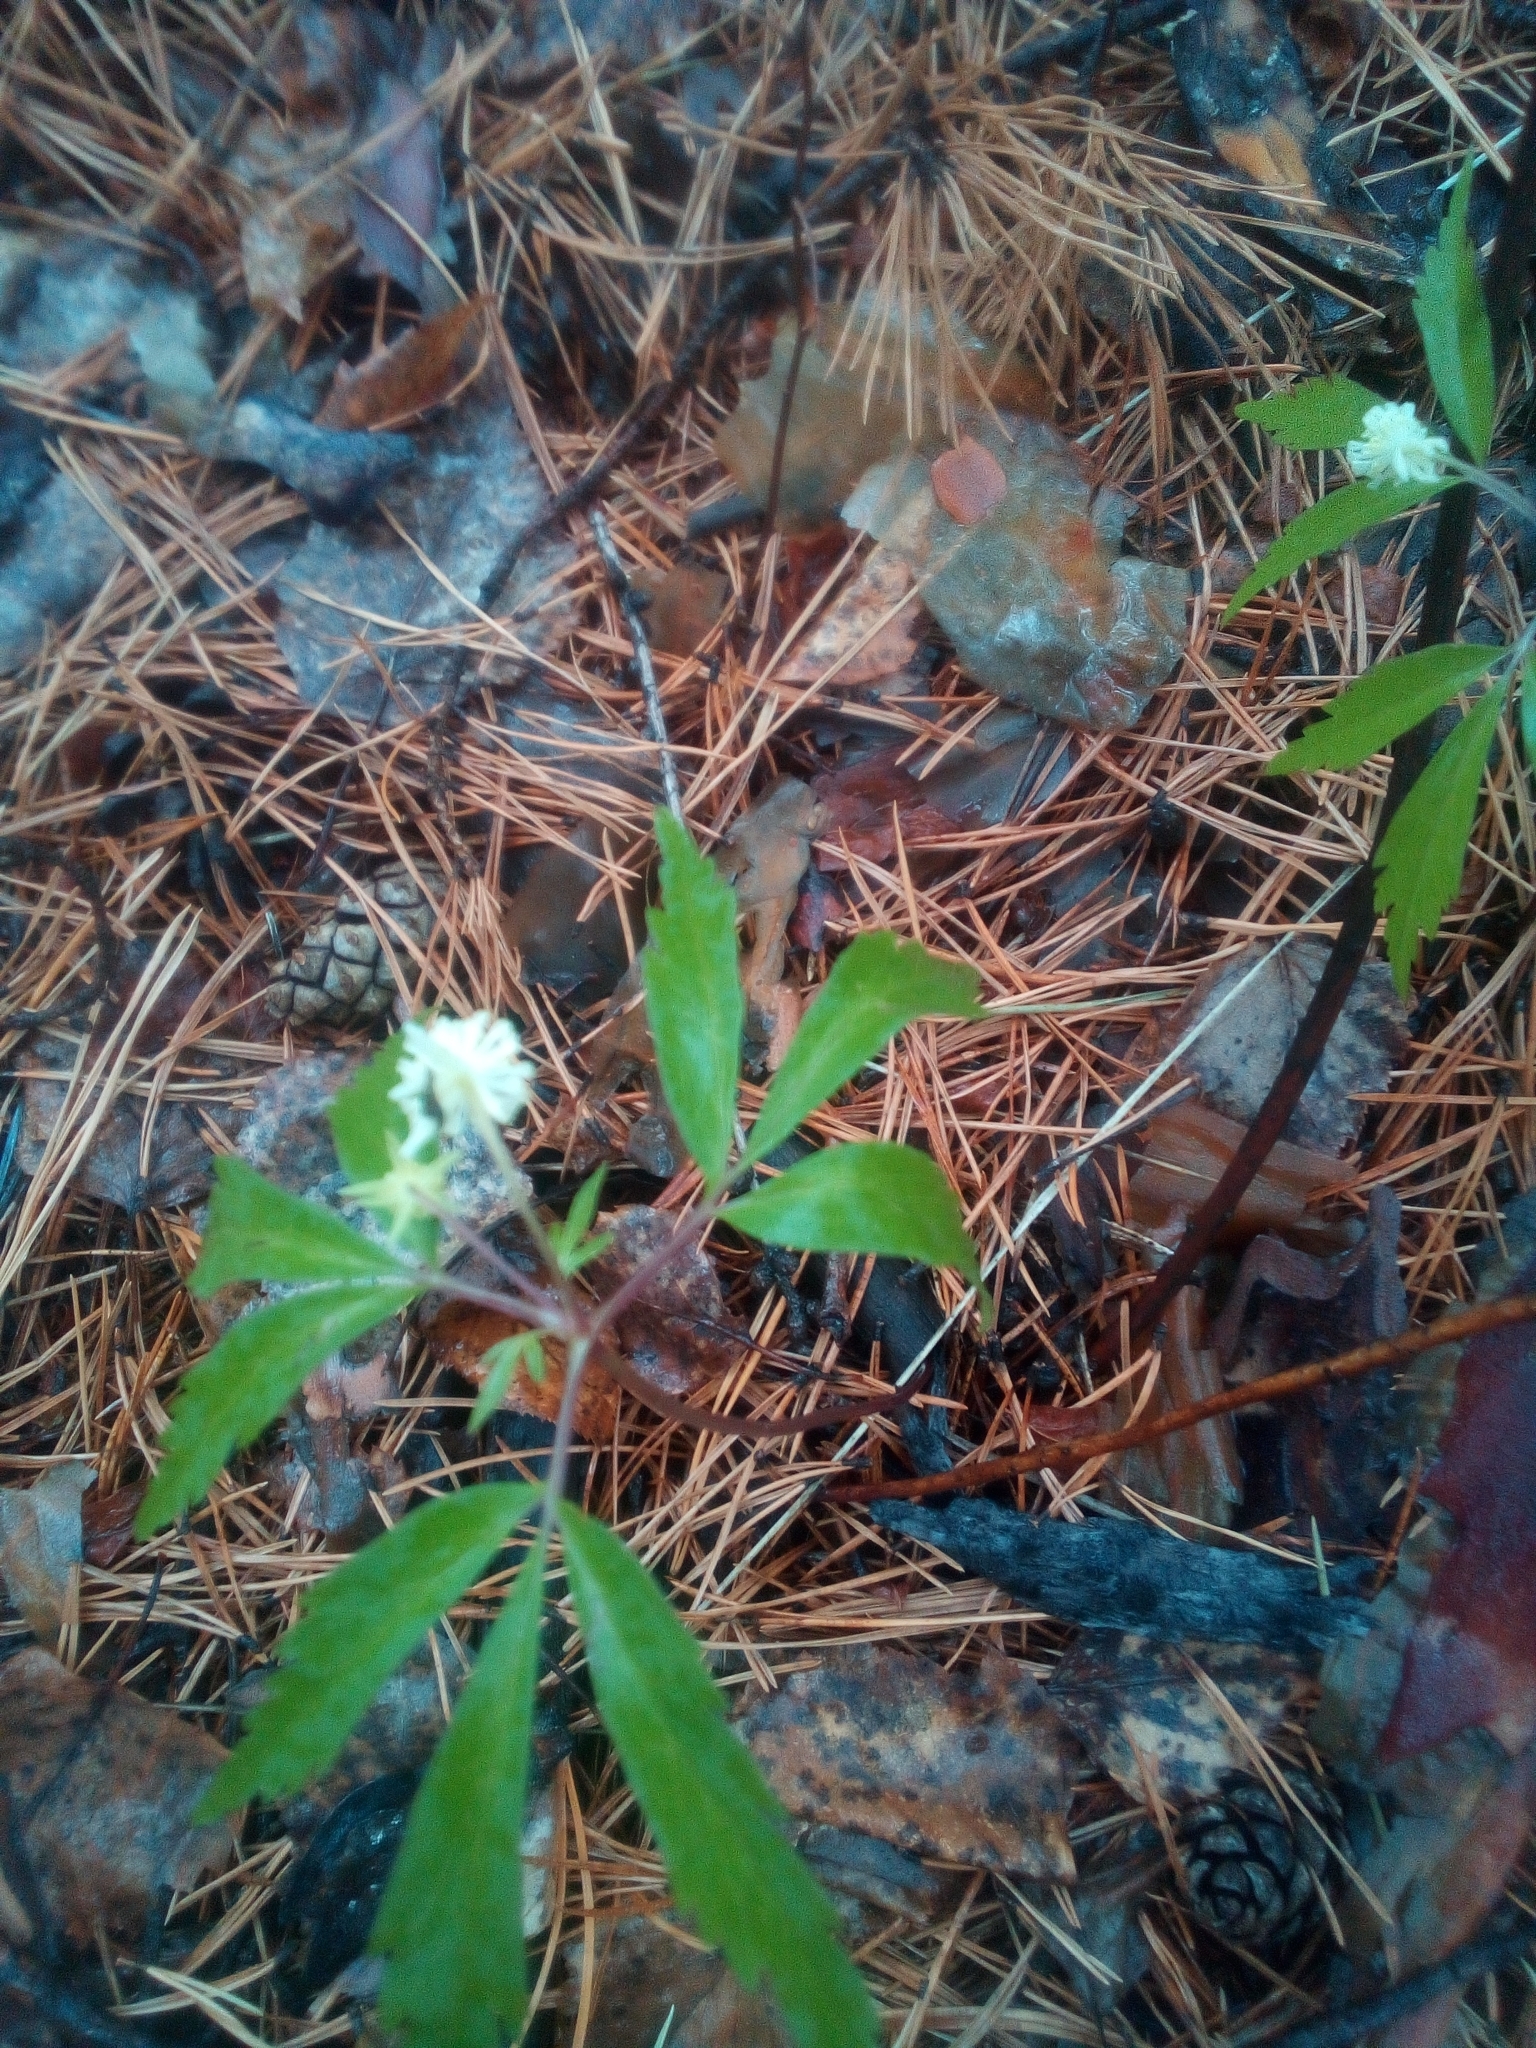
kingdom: Plantae
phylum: Tracheophyta
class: Magnoliopsida
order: Ranunculales
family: Ranunculaceae
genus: Anemone
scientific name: Anemone reflexa
